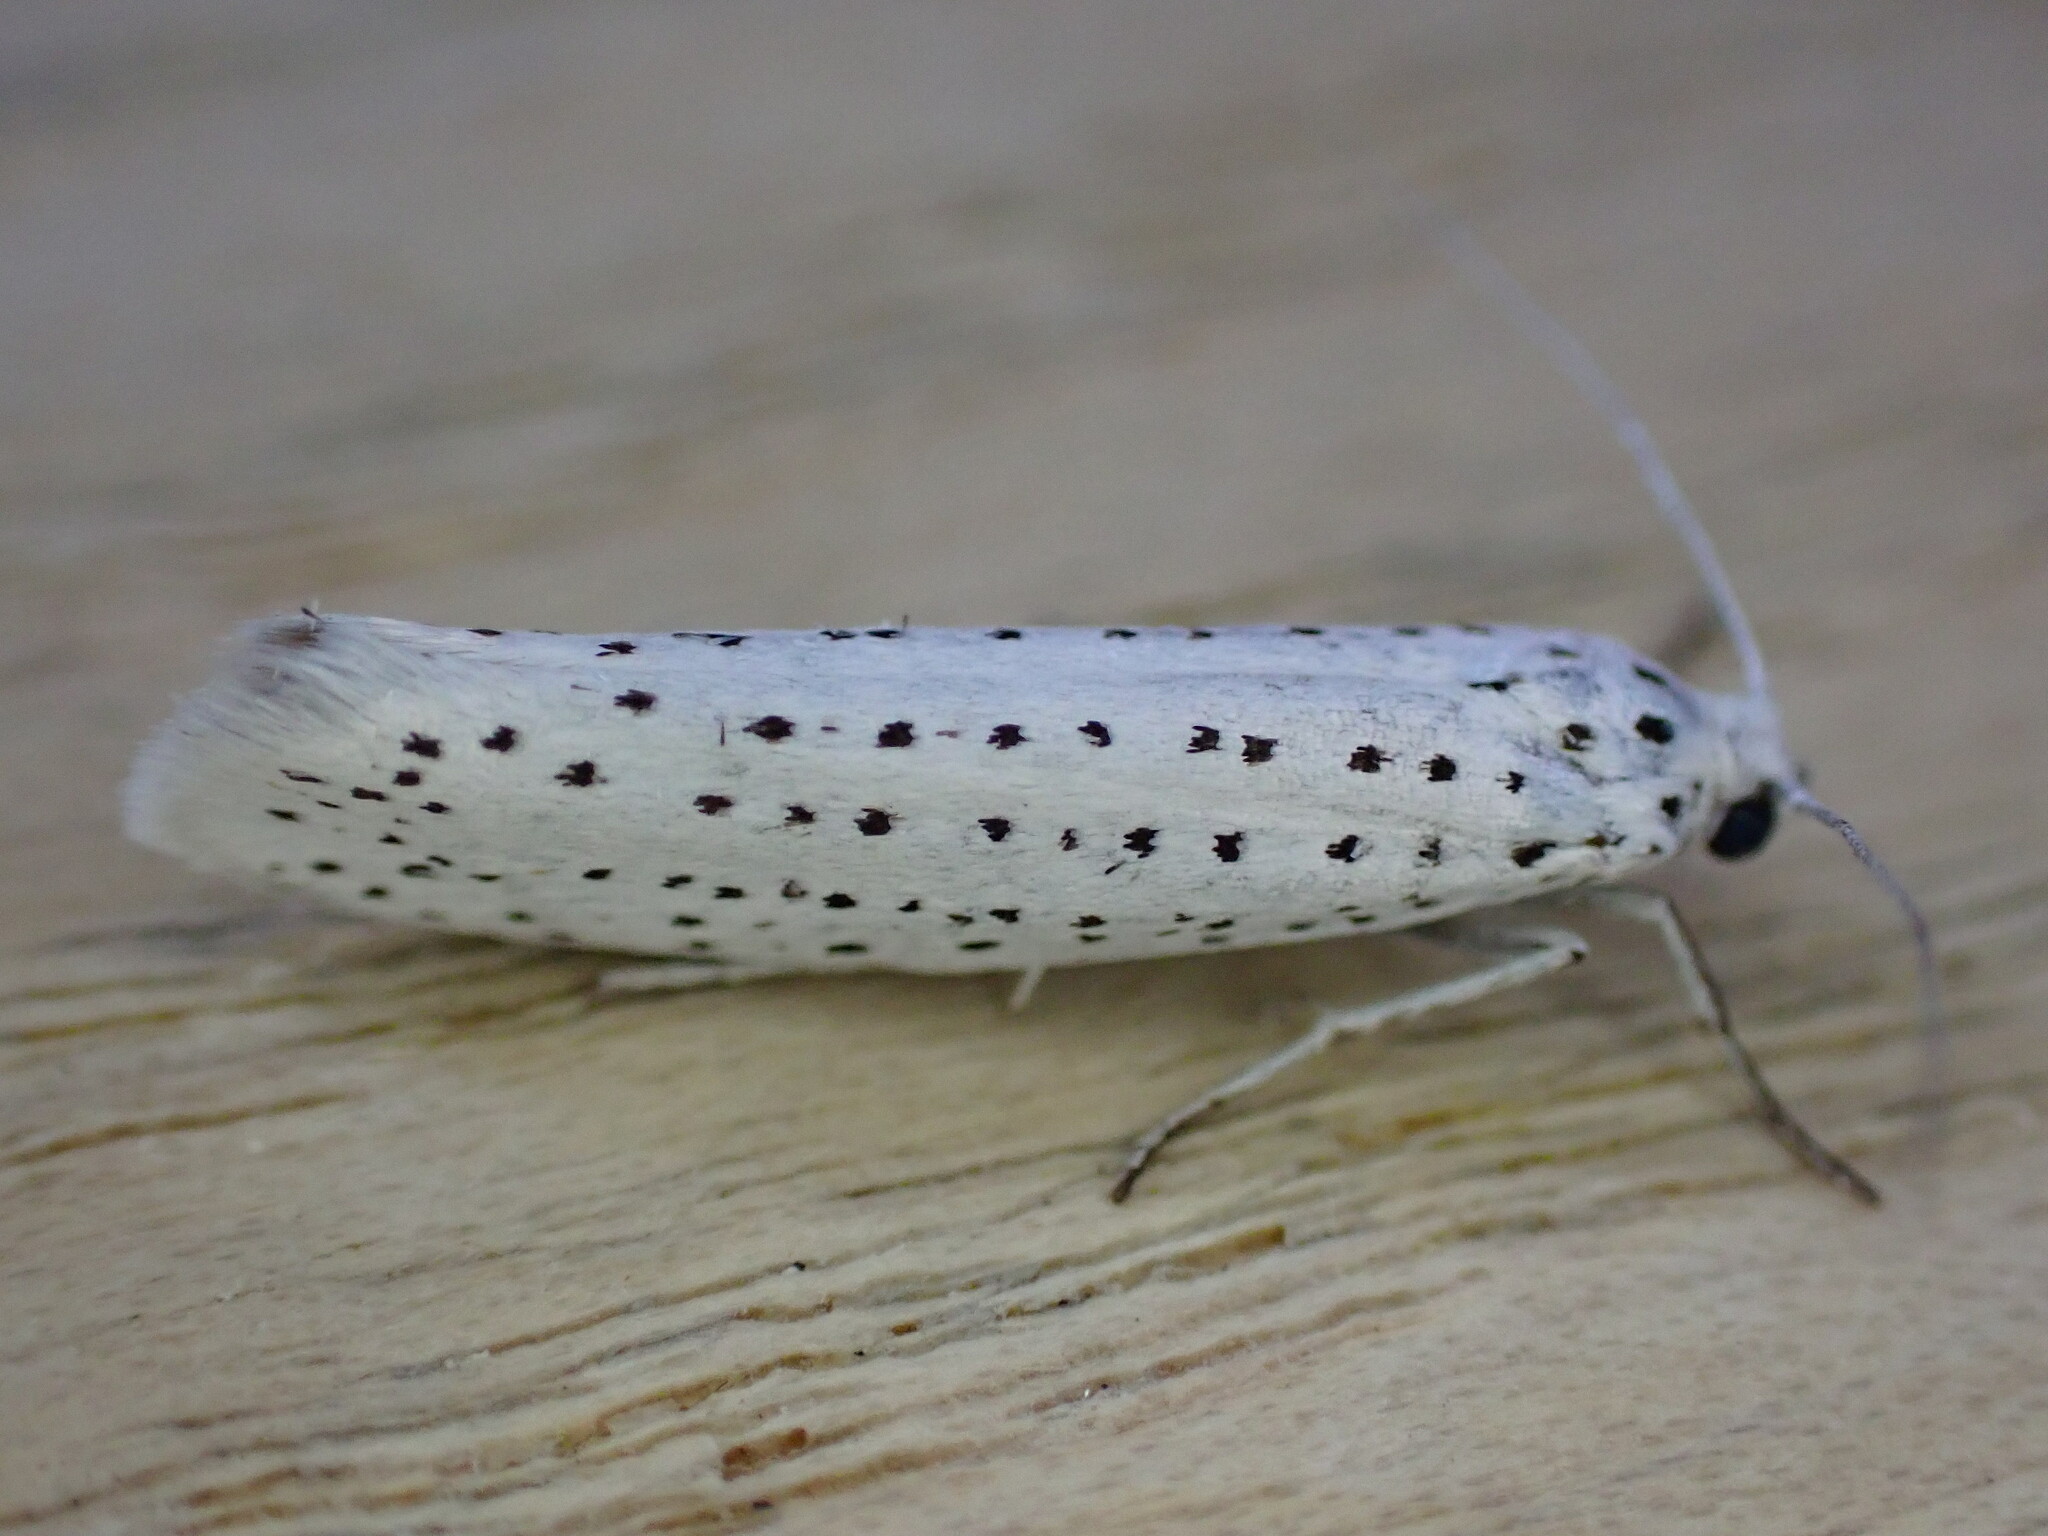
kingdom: Animalia
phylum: Arthropoda
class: Insecta
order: Lepidoptera
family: Yponomeutidae
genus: Yponomeuta
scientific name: Yponomeuta evonymella
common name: Bird-cherry ermine
